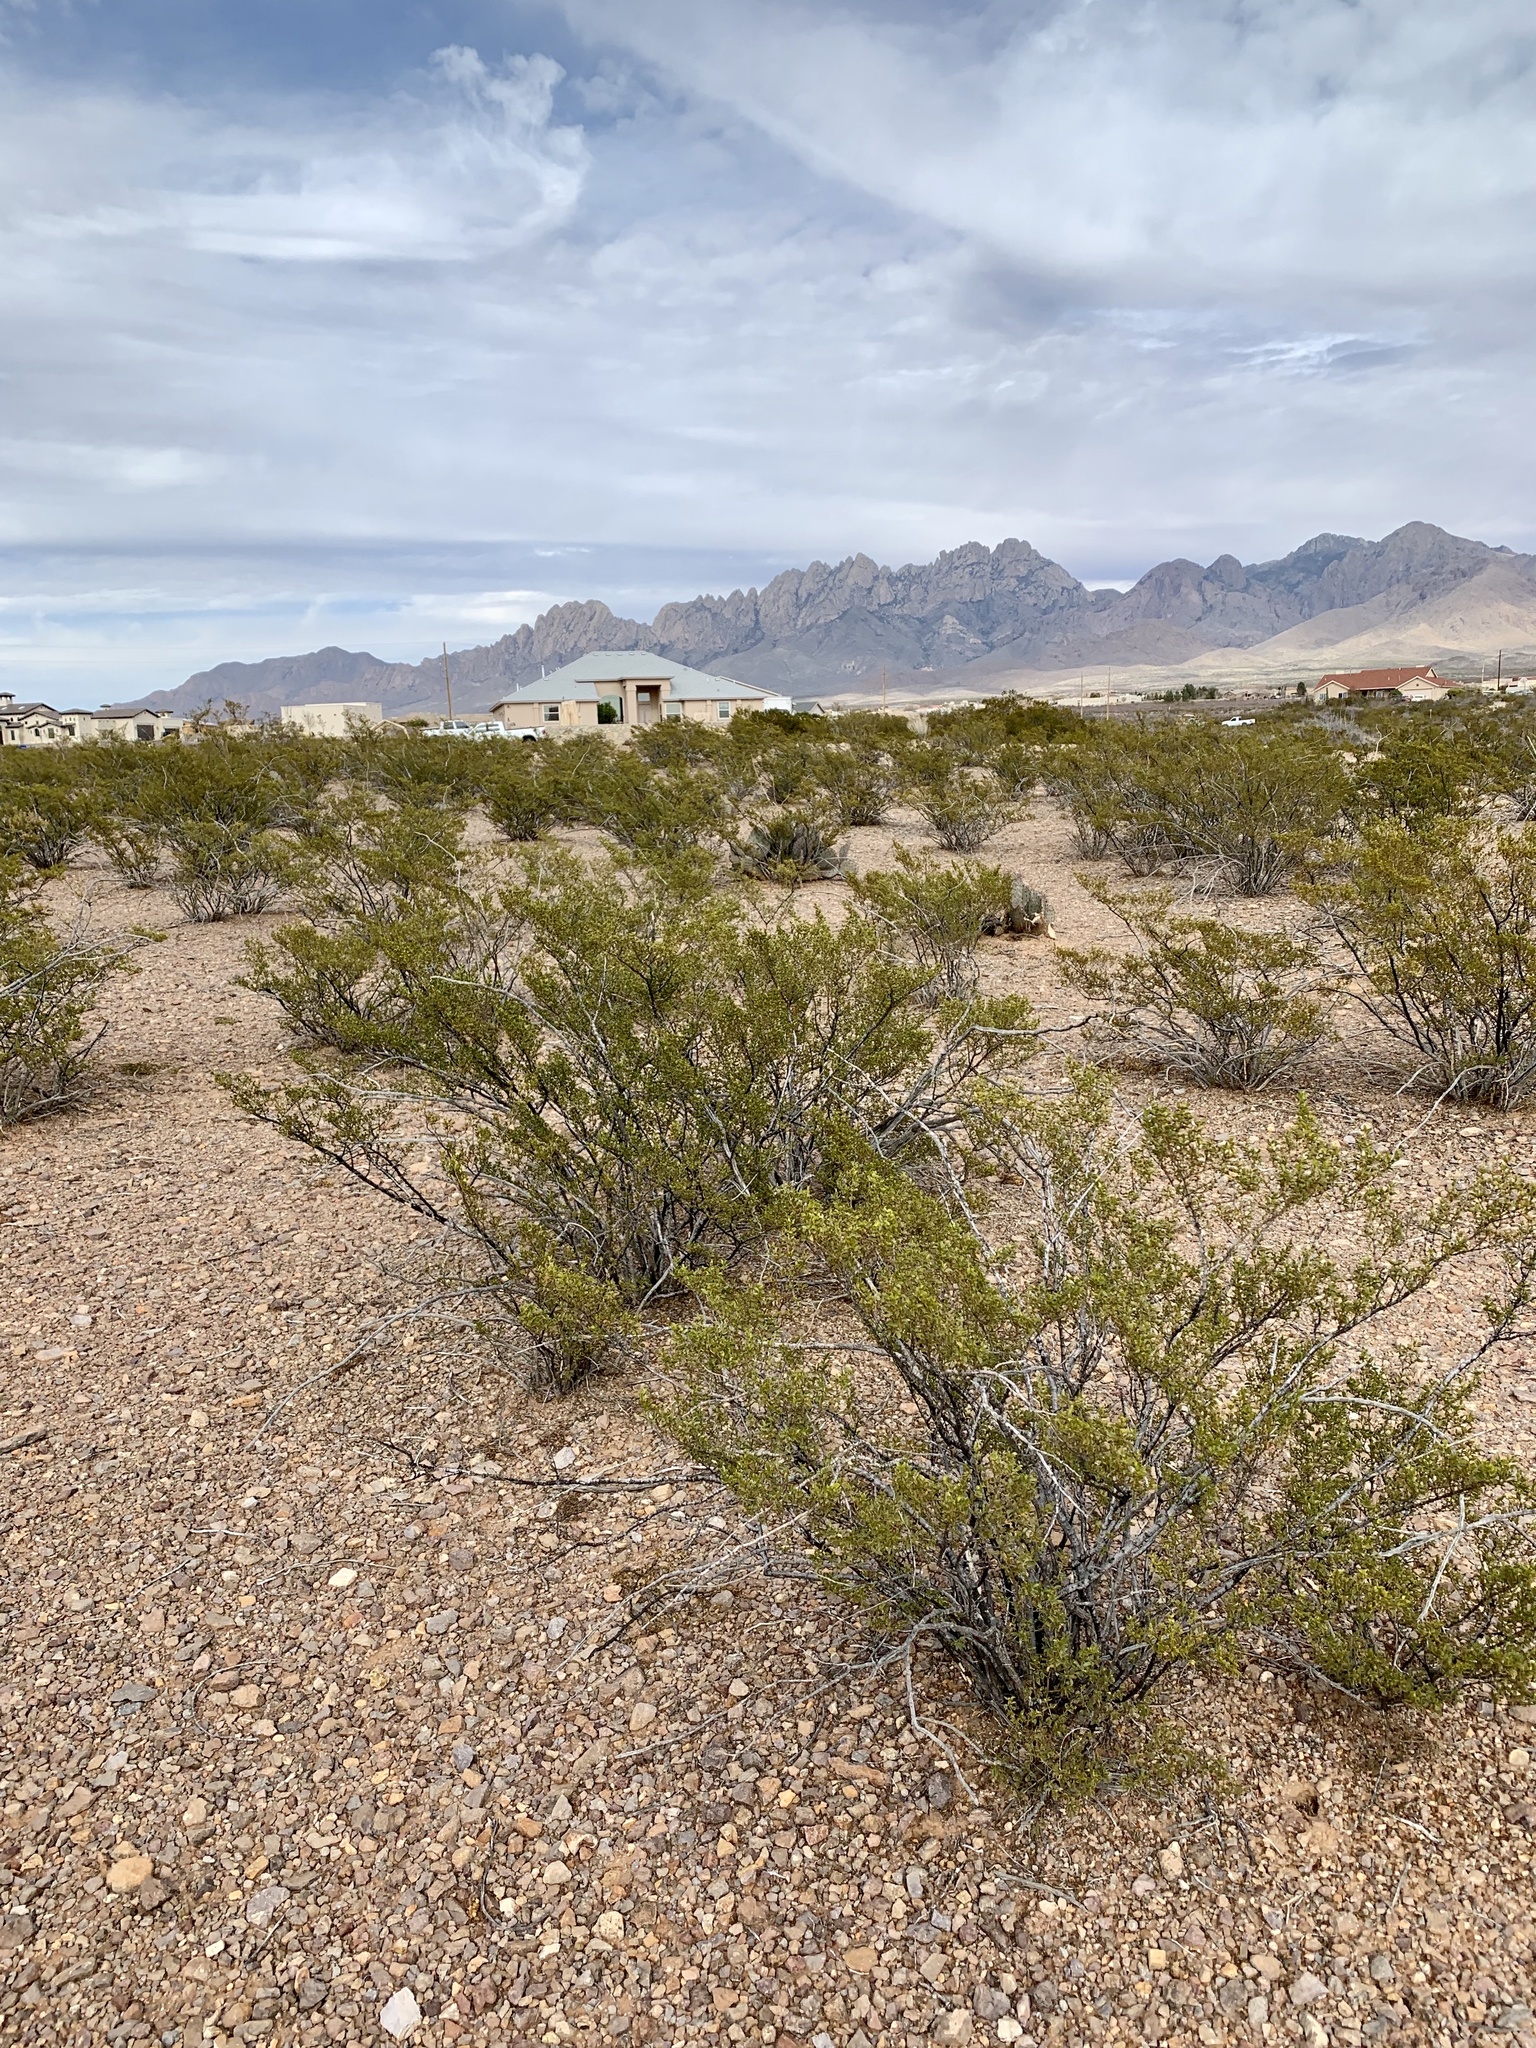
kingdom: Plantae
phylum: Tracheophyta
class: Magnoliopsida
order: Zygophyllales
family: Zygophyllaceae
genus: Larrea
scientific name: Larrea tridentata
